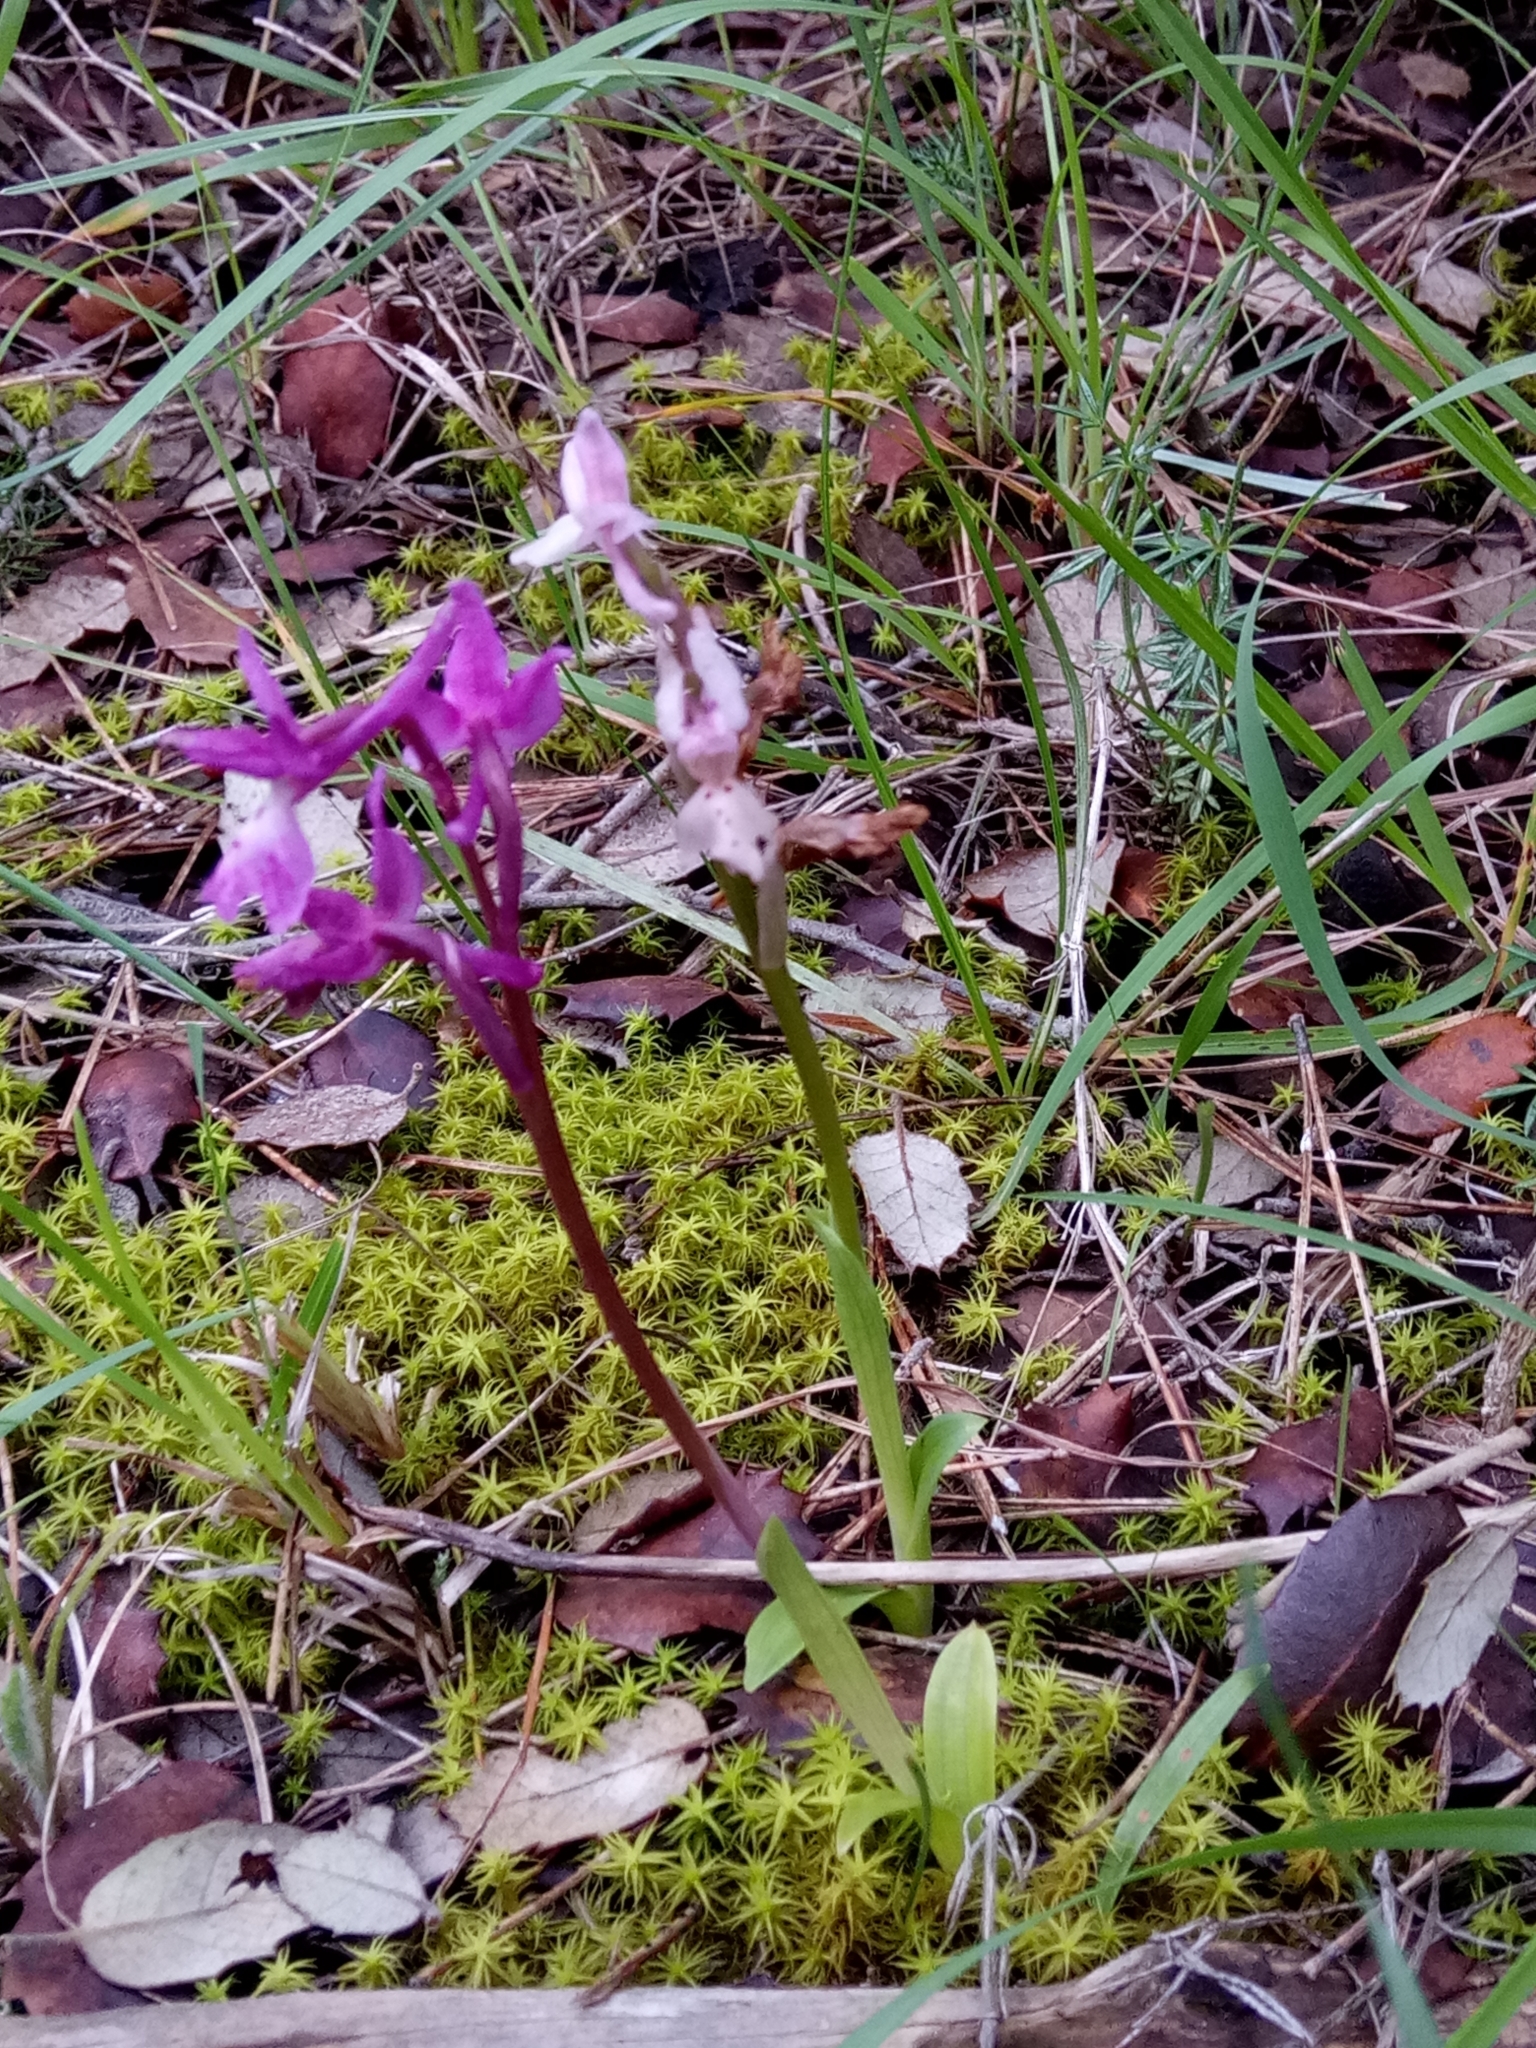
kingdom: Plantae
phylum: Tracheophyta
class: Liliopsida
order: Asparagales
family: Orchidaceae
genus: Orchis
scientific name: Orchis laeta
